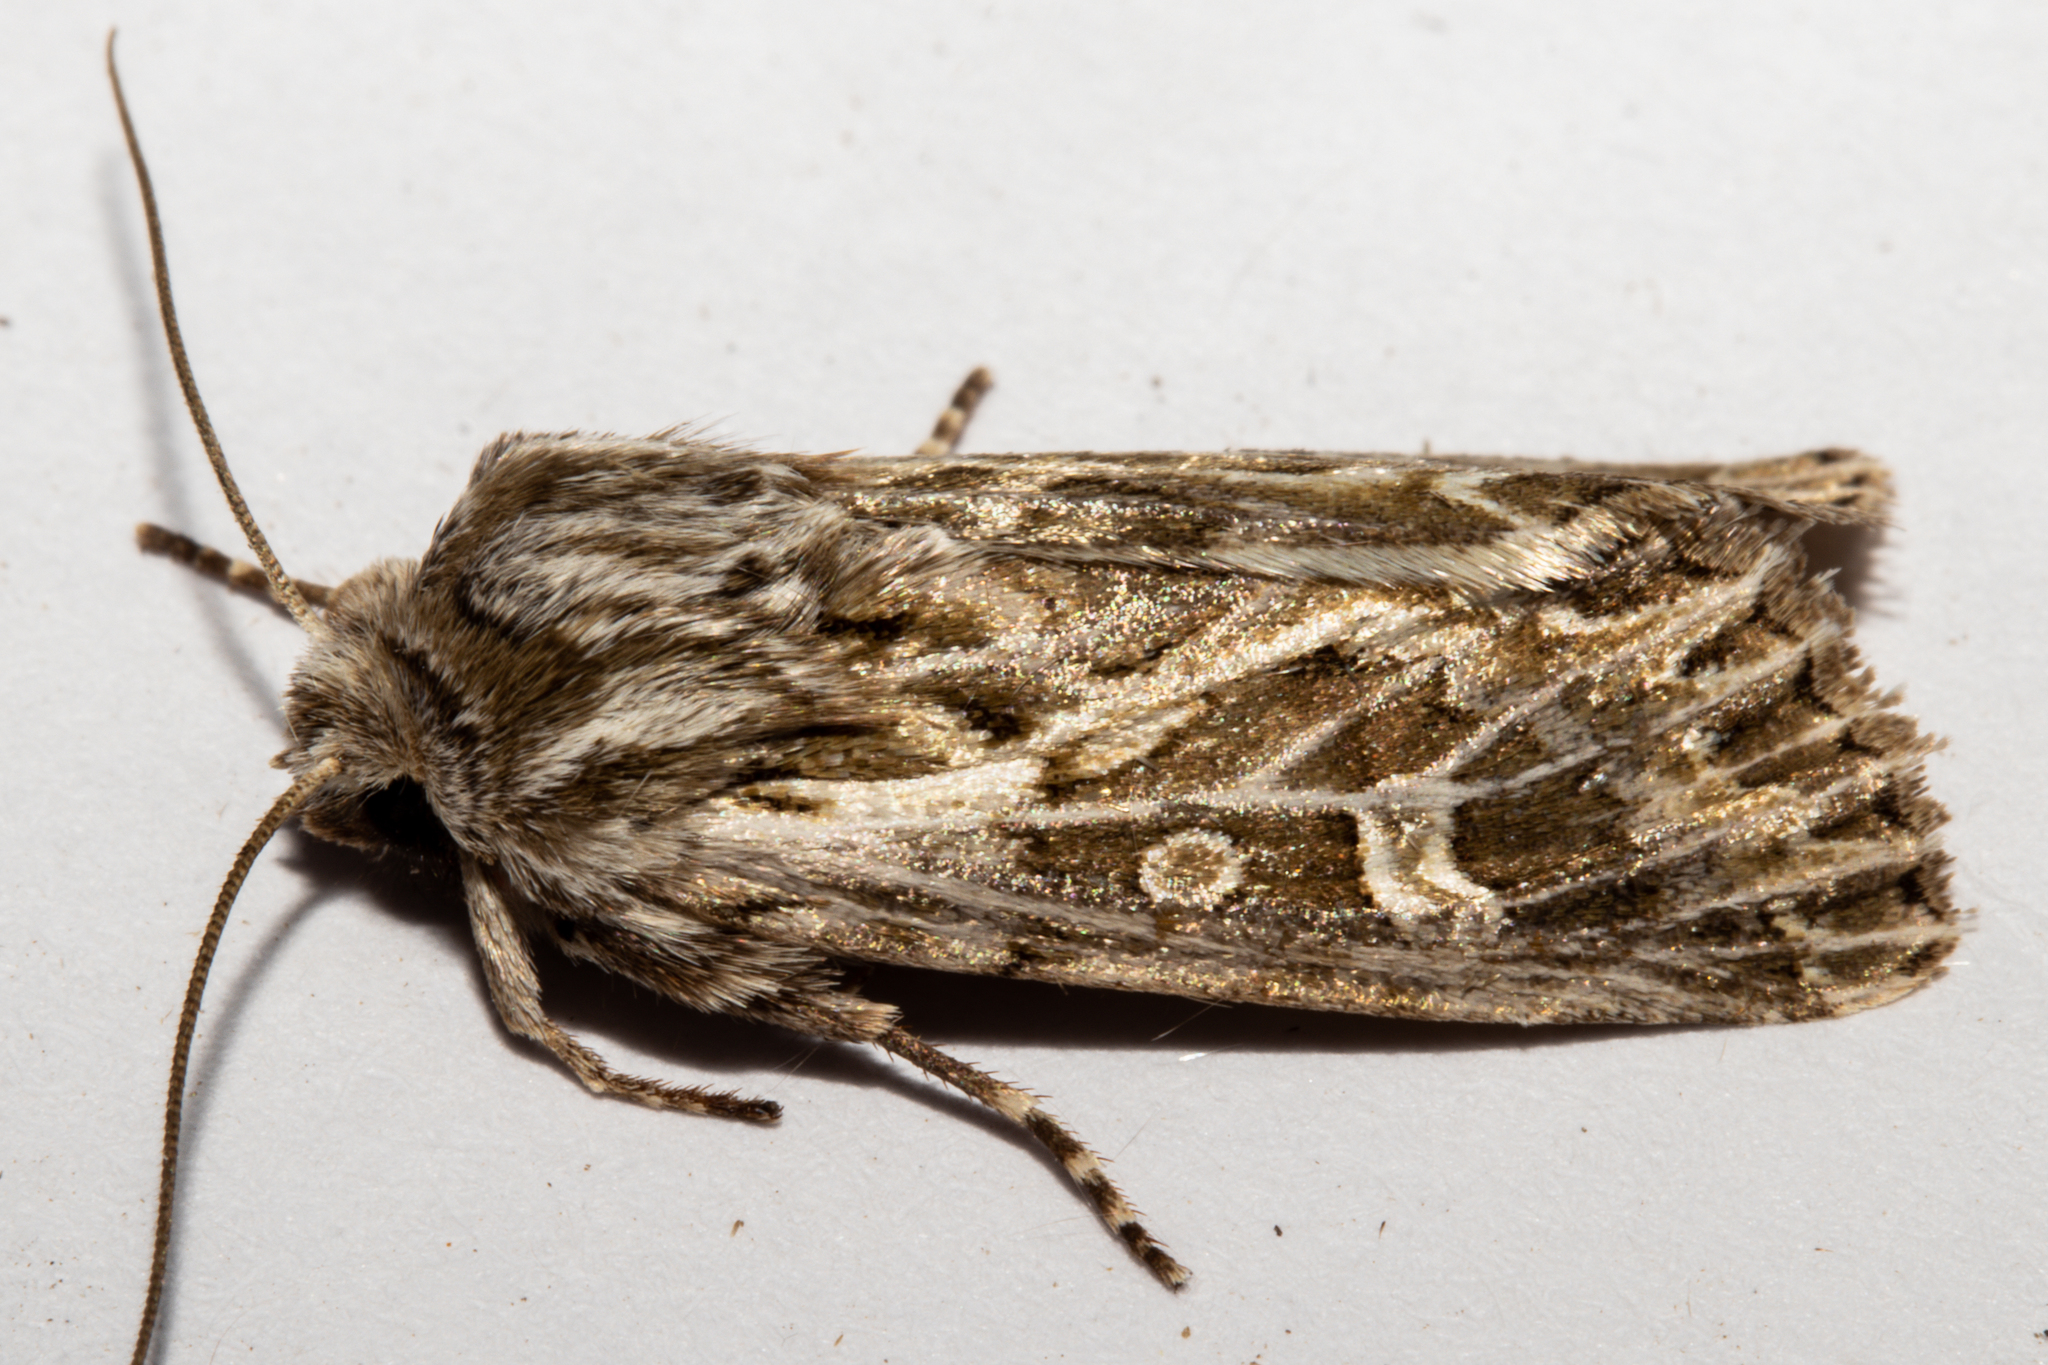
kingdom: Animalia
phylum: Arthropoda
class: Insecta
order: Lepidoptera
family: Noctuidae
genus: Ichneutica
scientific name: Ichneutica
